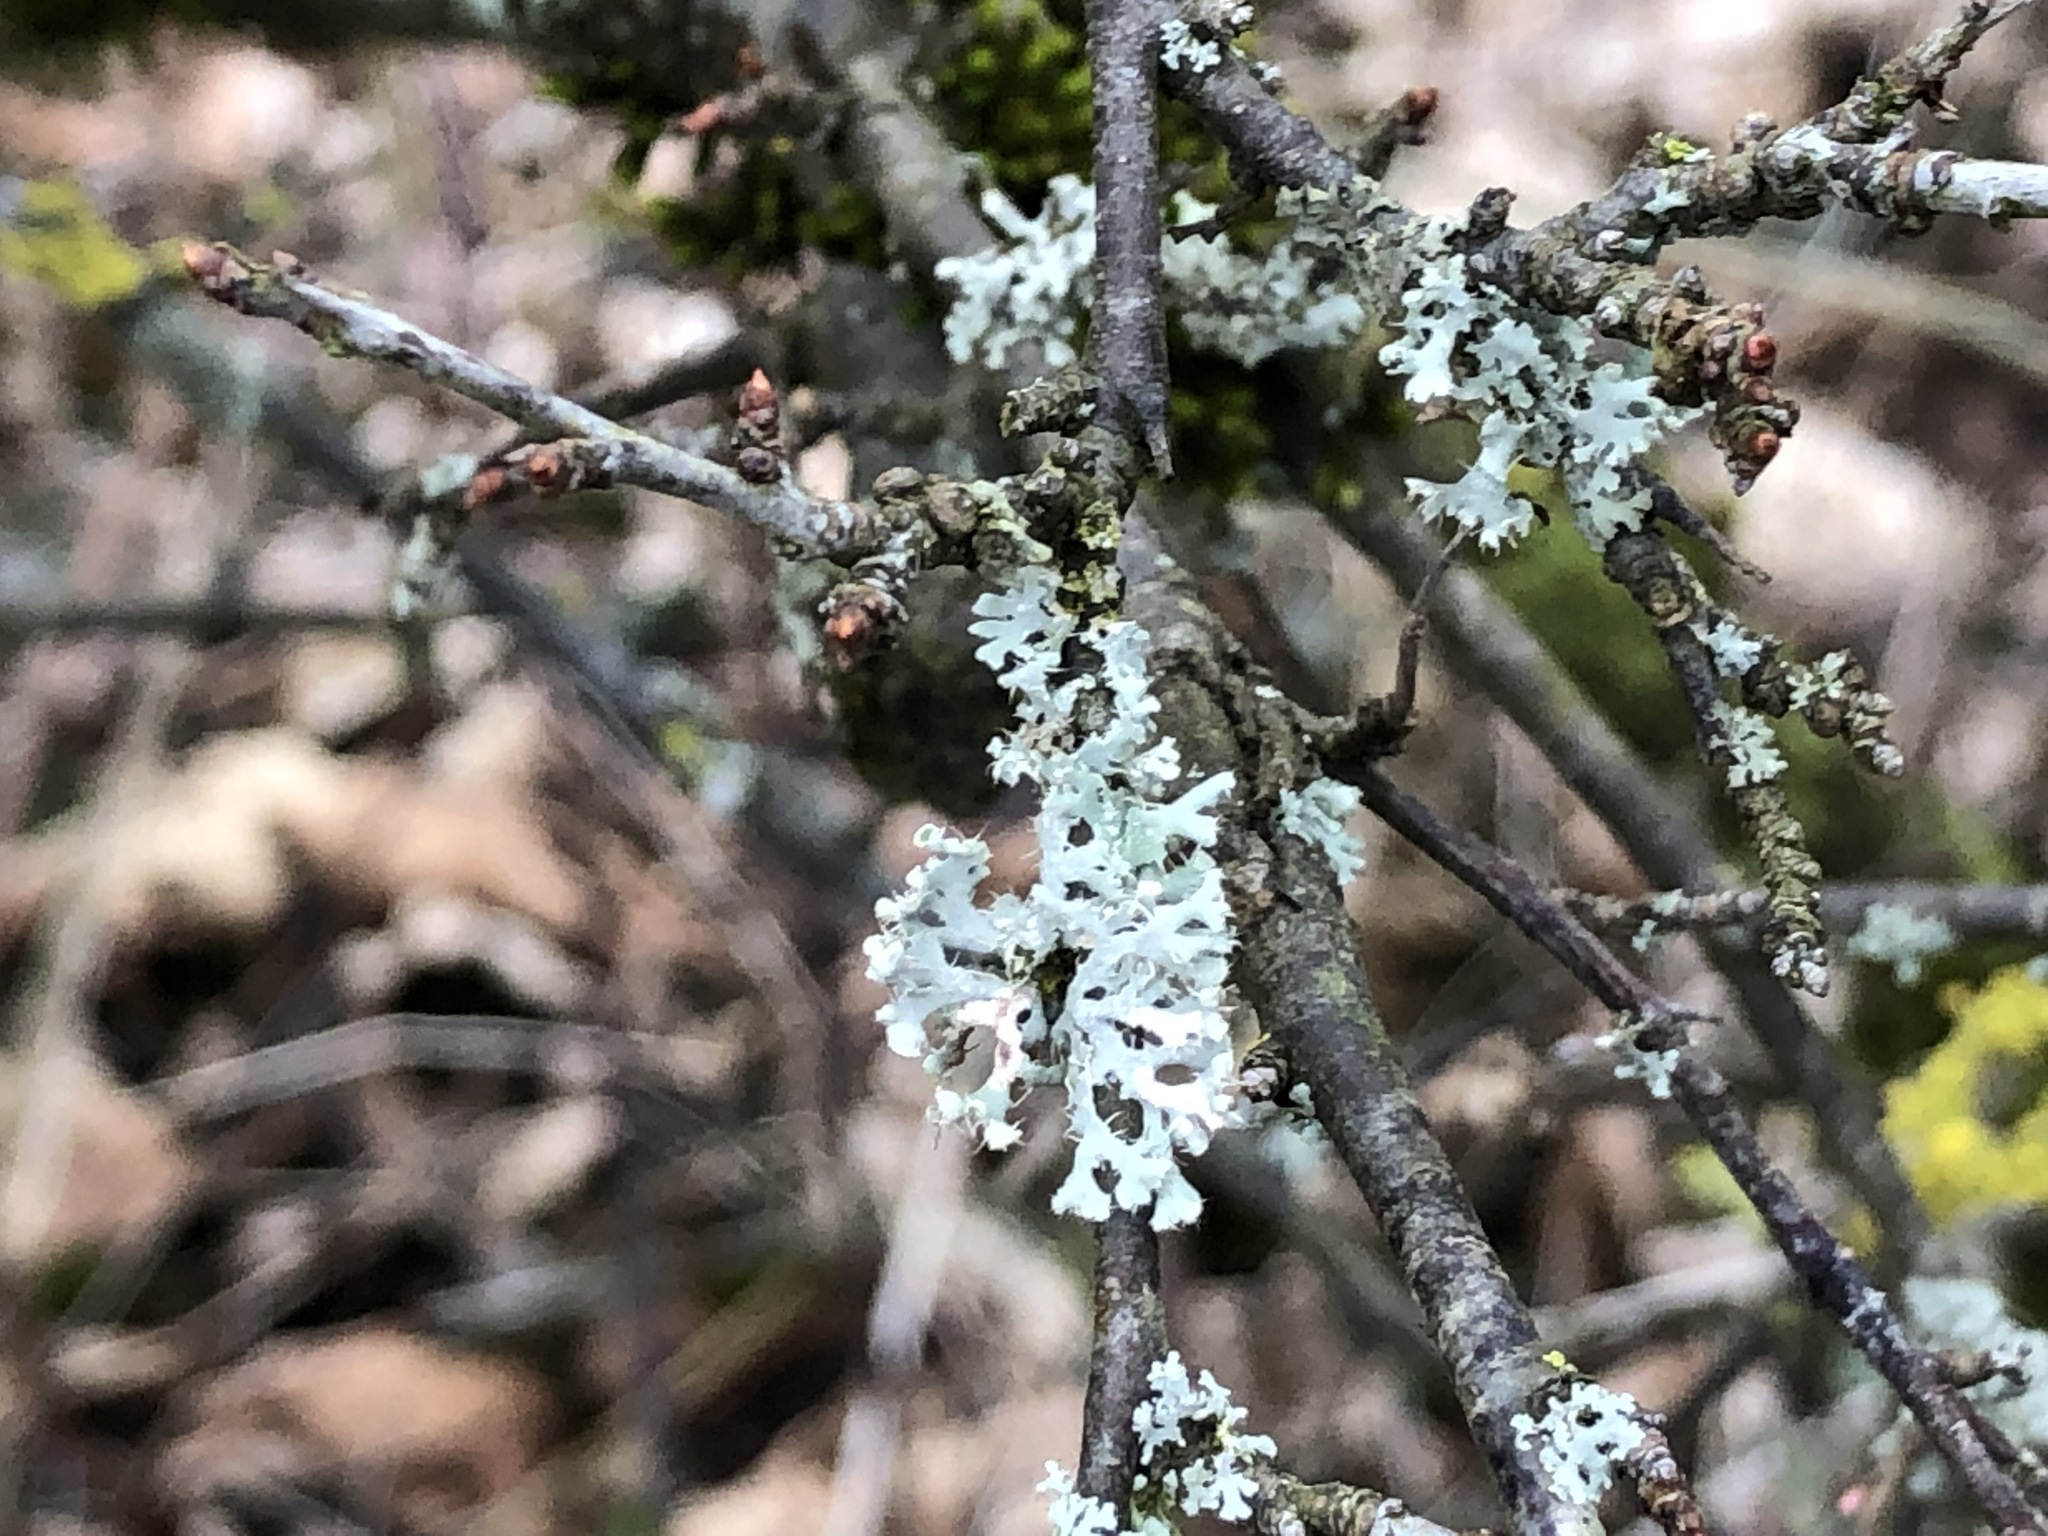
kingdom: Fungi
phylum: Ascomycota
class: Lecanoromycetes
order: Caliciales
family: Physciaceae
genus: Physcia
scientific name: Physcia adscendens
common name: Hooded rosette lichen
